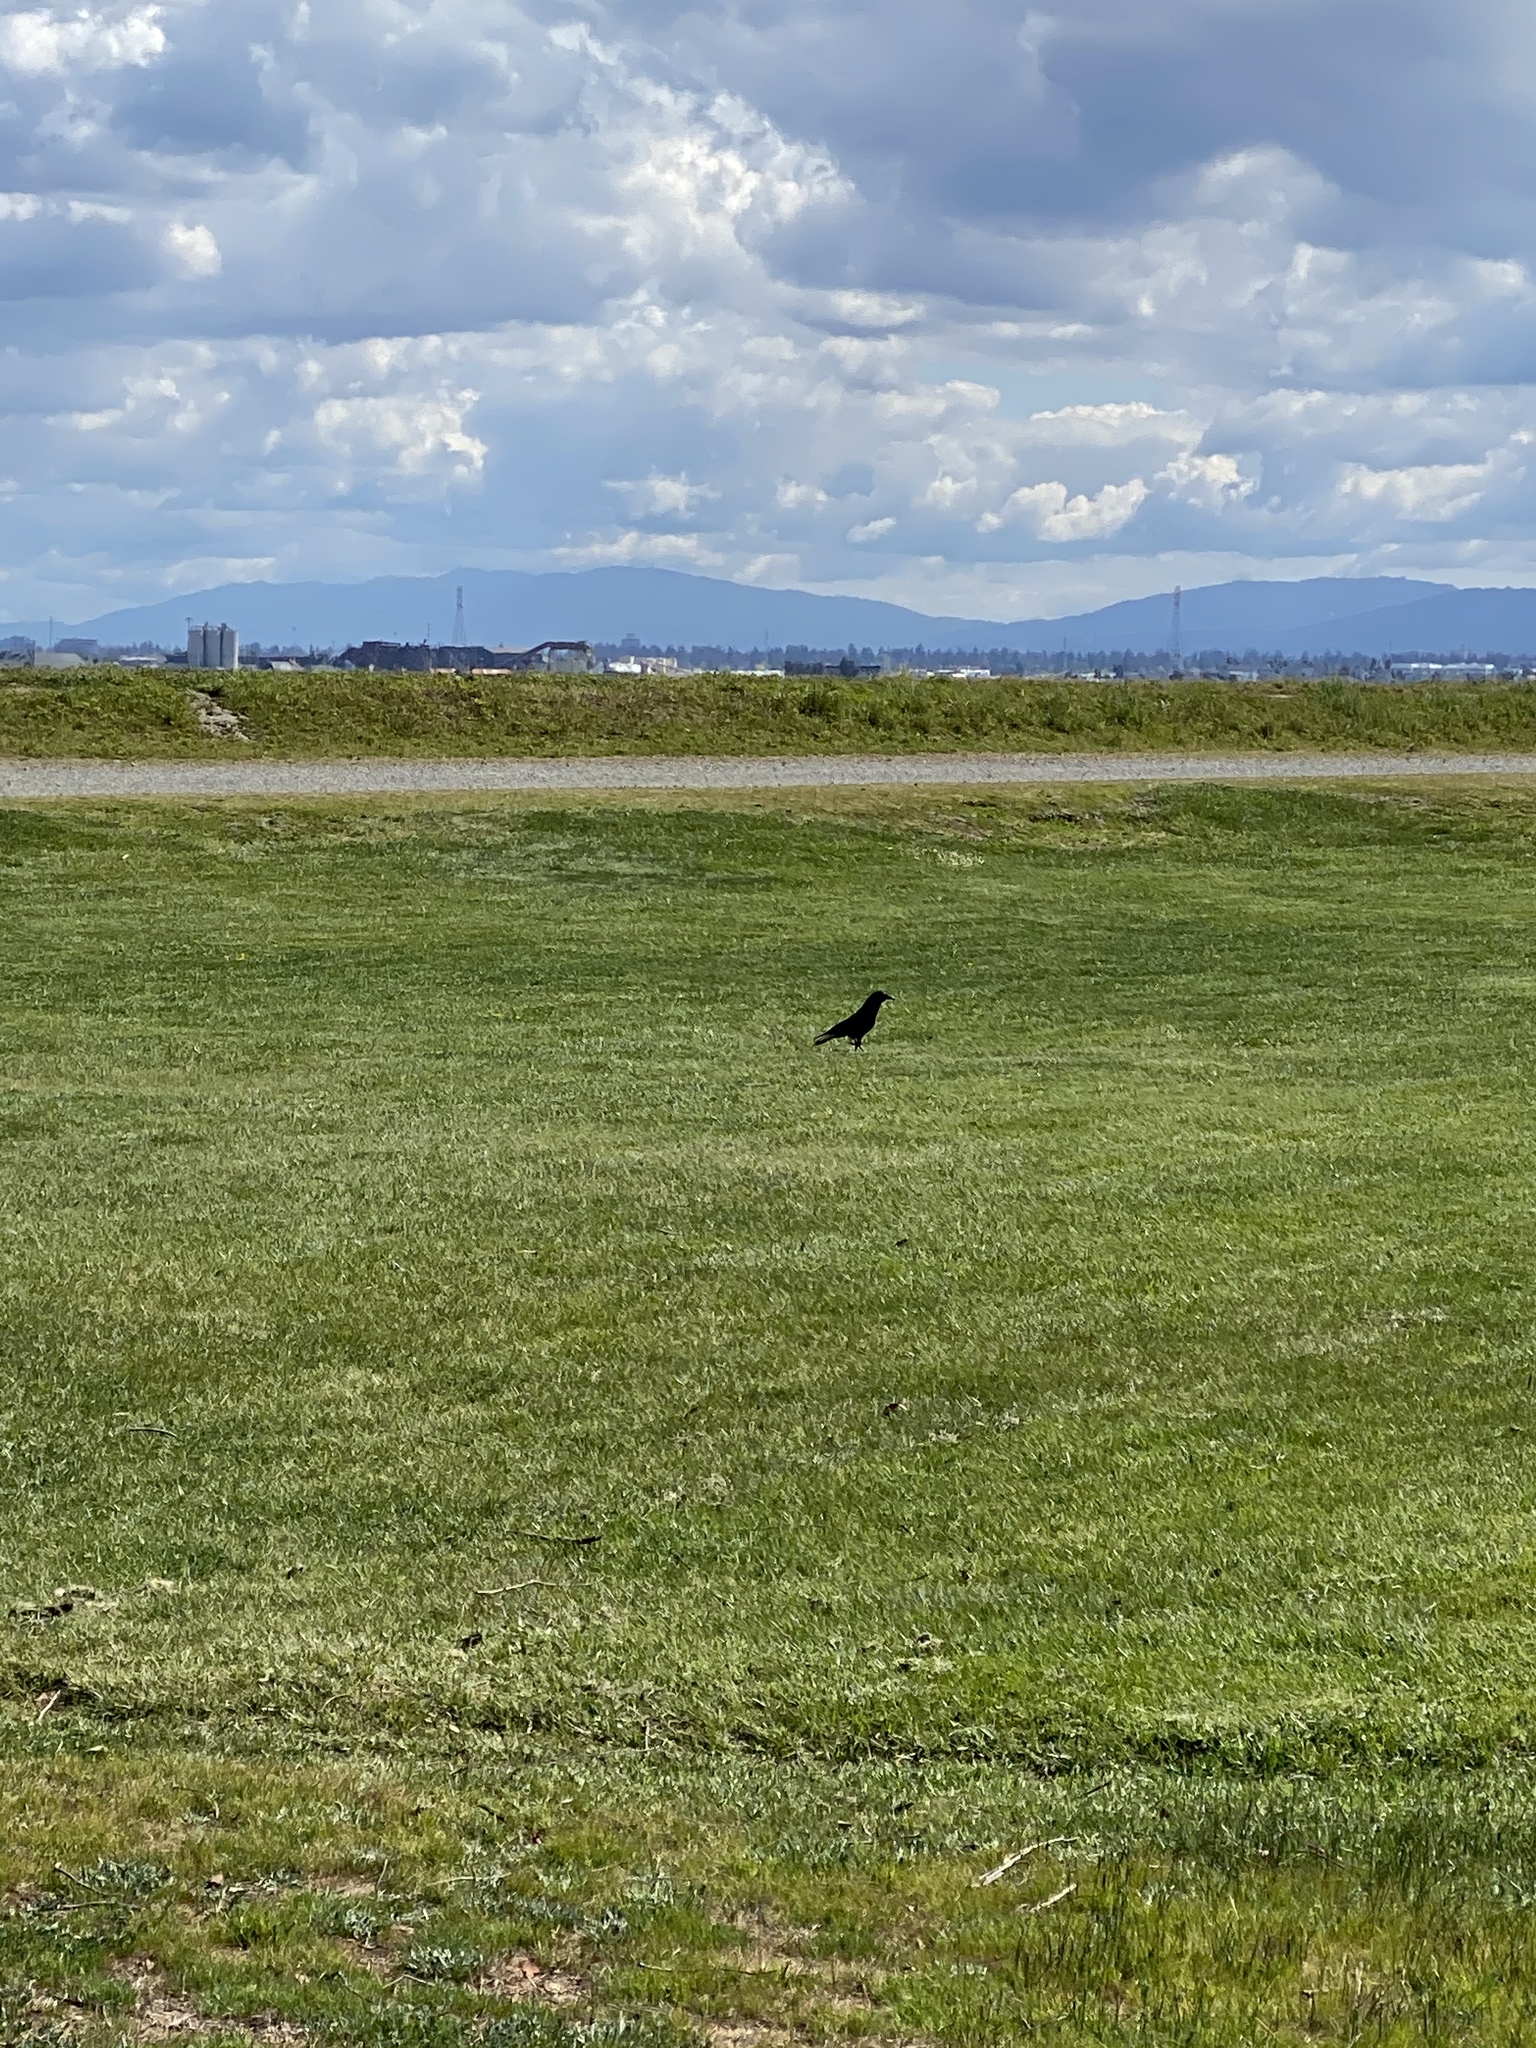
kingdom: Animalia
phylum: Chordata
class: Aves
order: Passeriformes
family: Corvidae
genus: Corvus
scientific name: Corvus brachyrhynchos
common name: American crow
